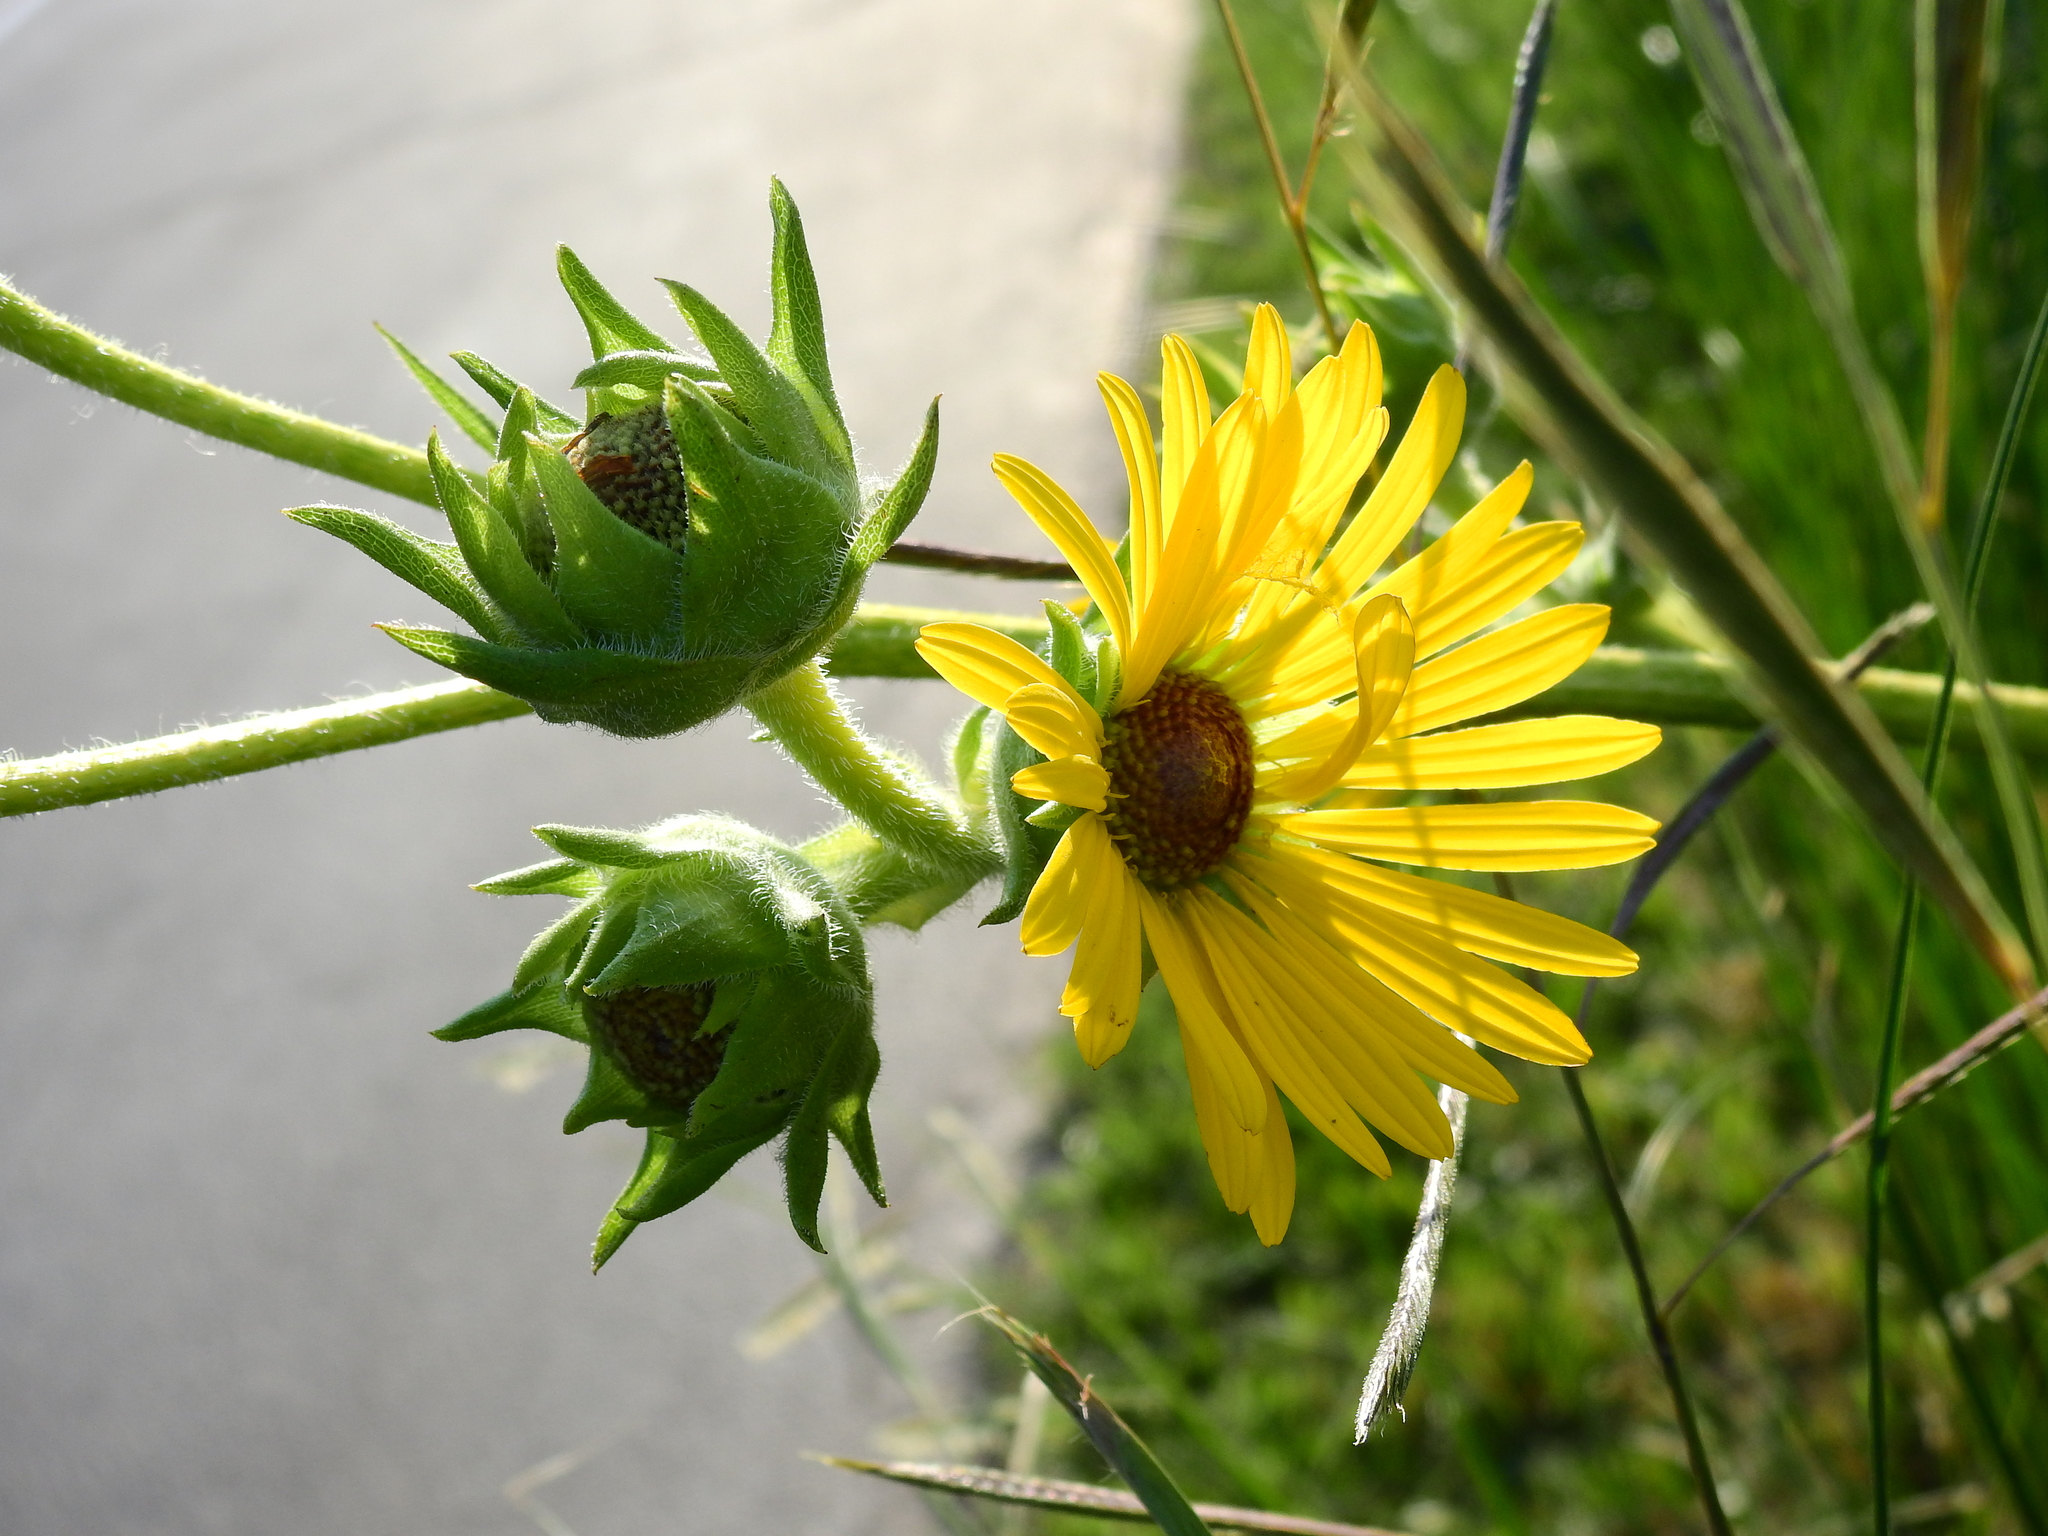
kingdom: Plantae
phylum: Tracheophyta
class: Magnoliopsida
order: Asterales
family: Asteraceae
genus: Silphium
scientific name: Silphium laciniatum
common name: Polarplant
